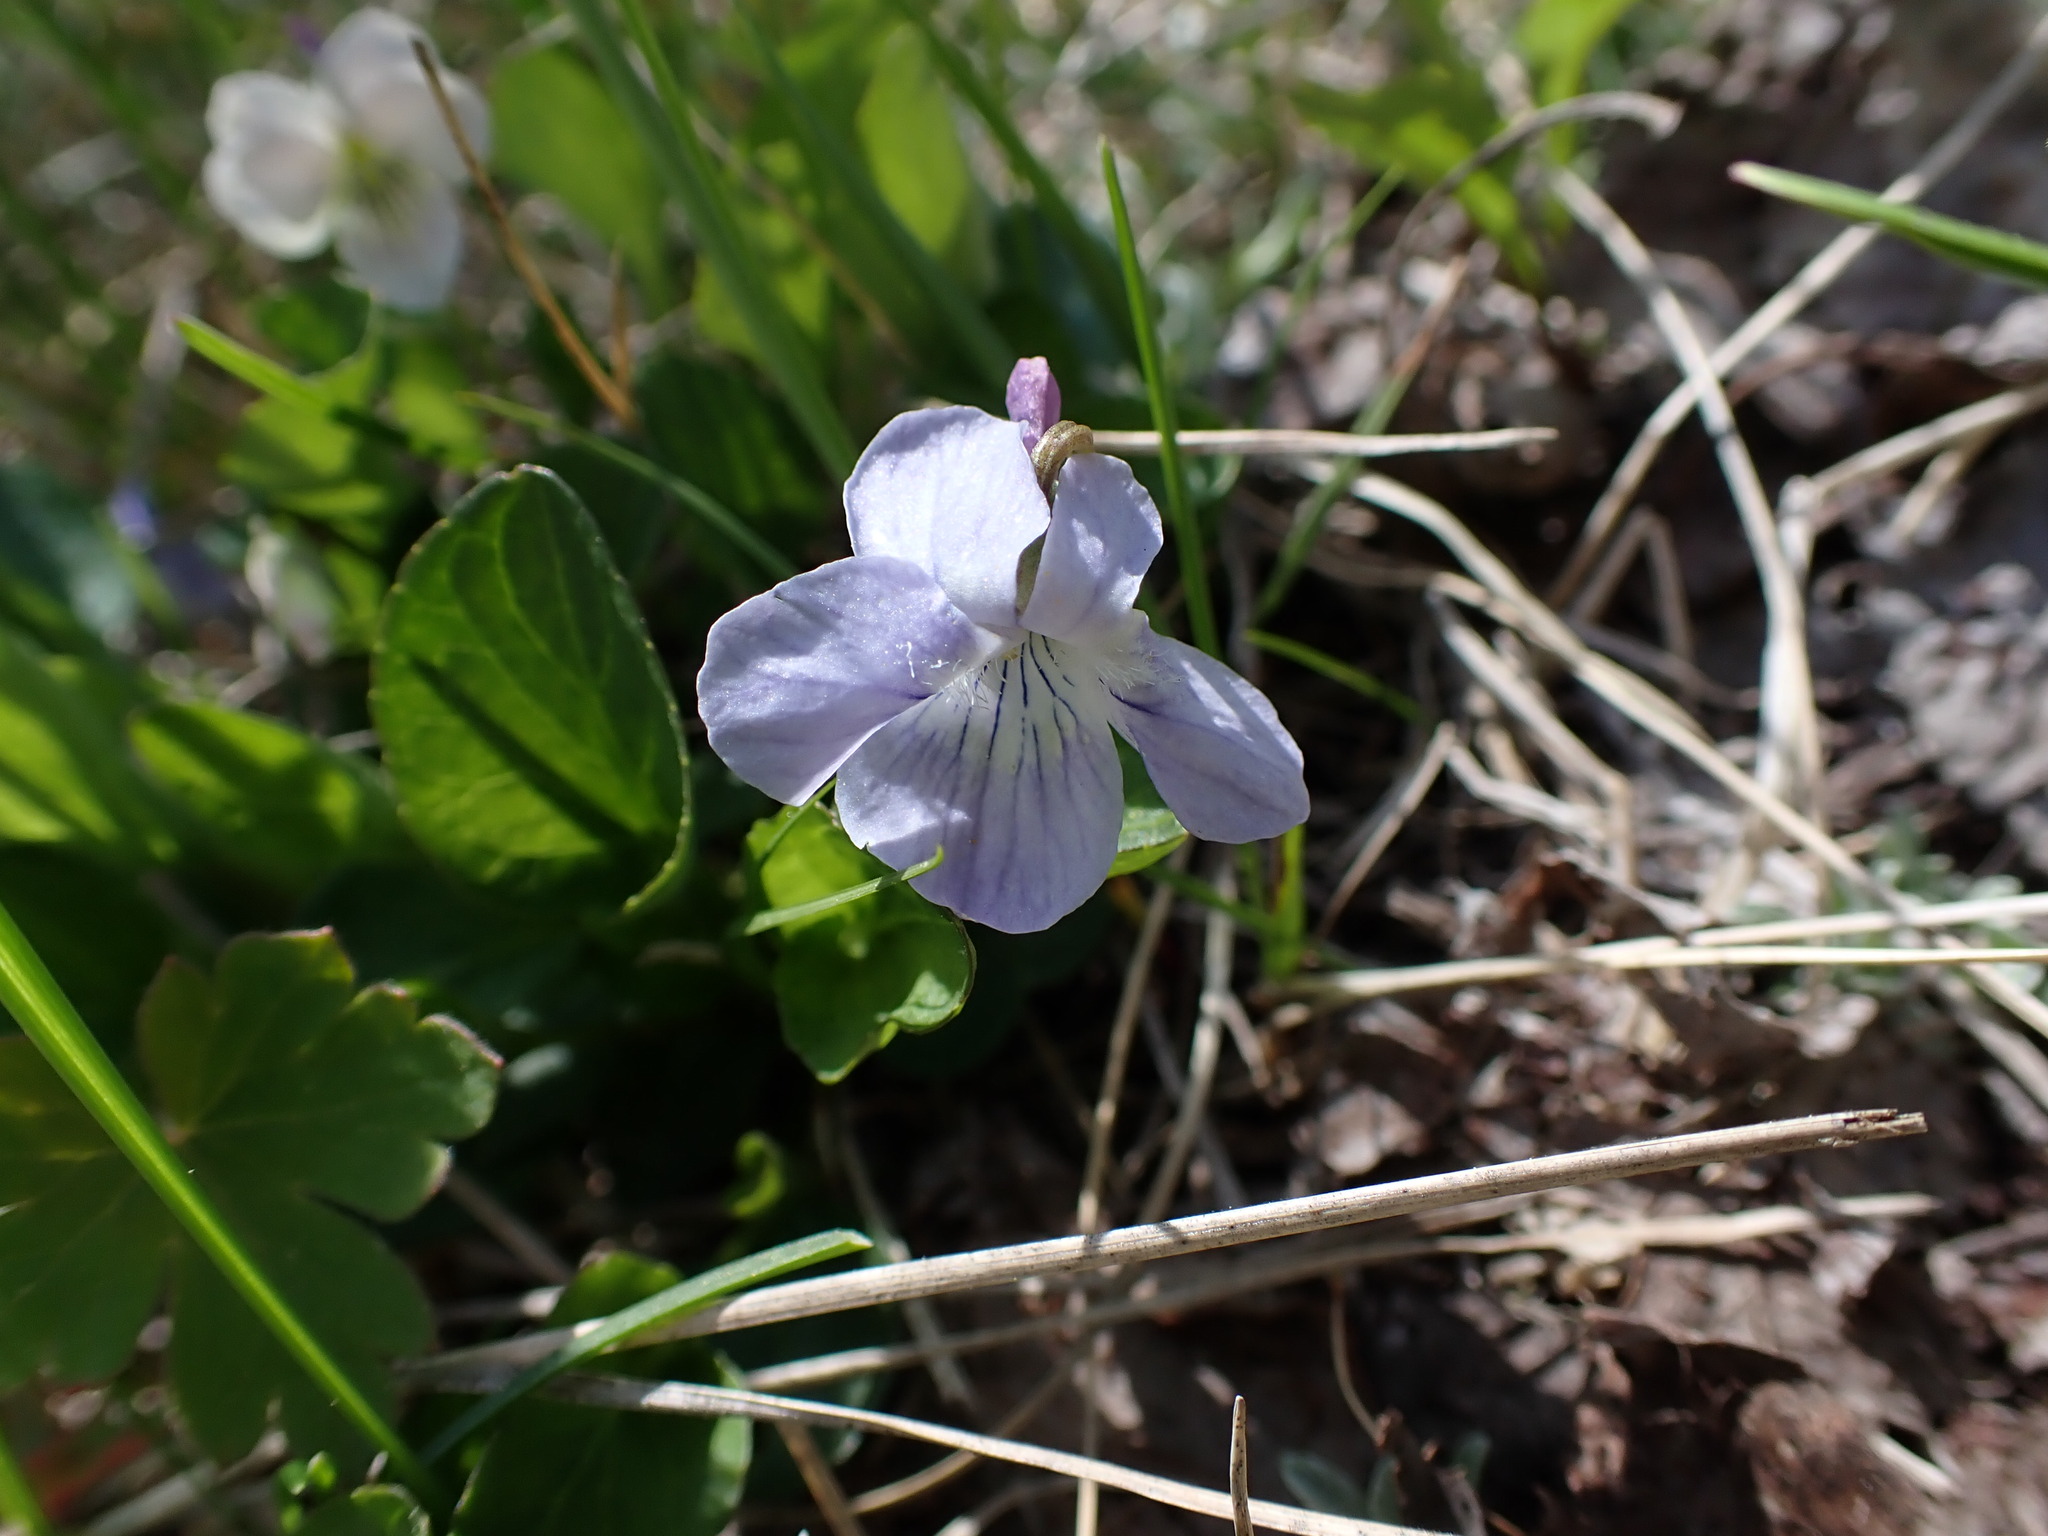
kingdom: Plantae
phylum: Tracheophyta
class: Magnoliopsida
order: Malpighiales
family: Violaceae
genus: Viola
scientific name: Viola adunca
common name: Sand violet
